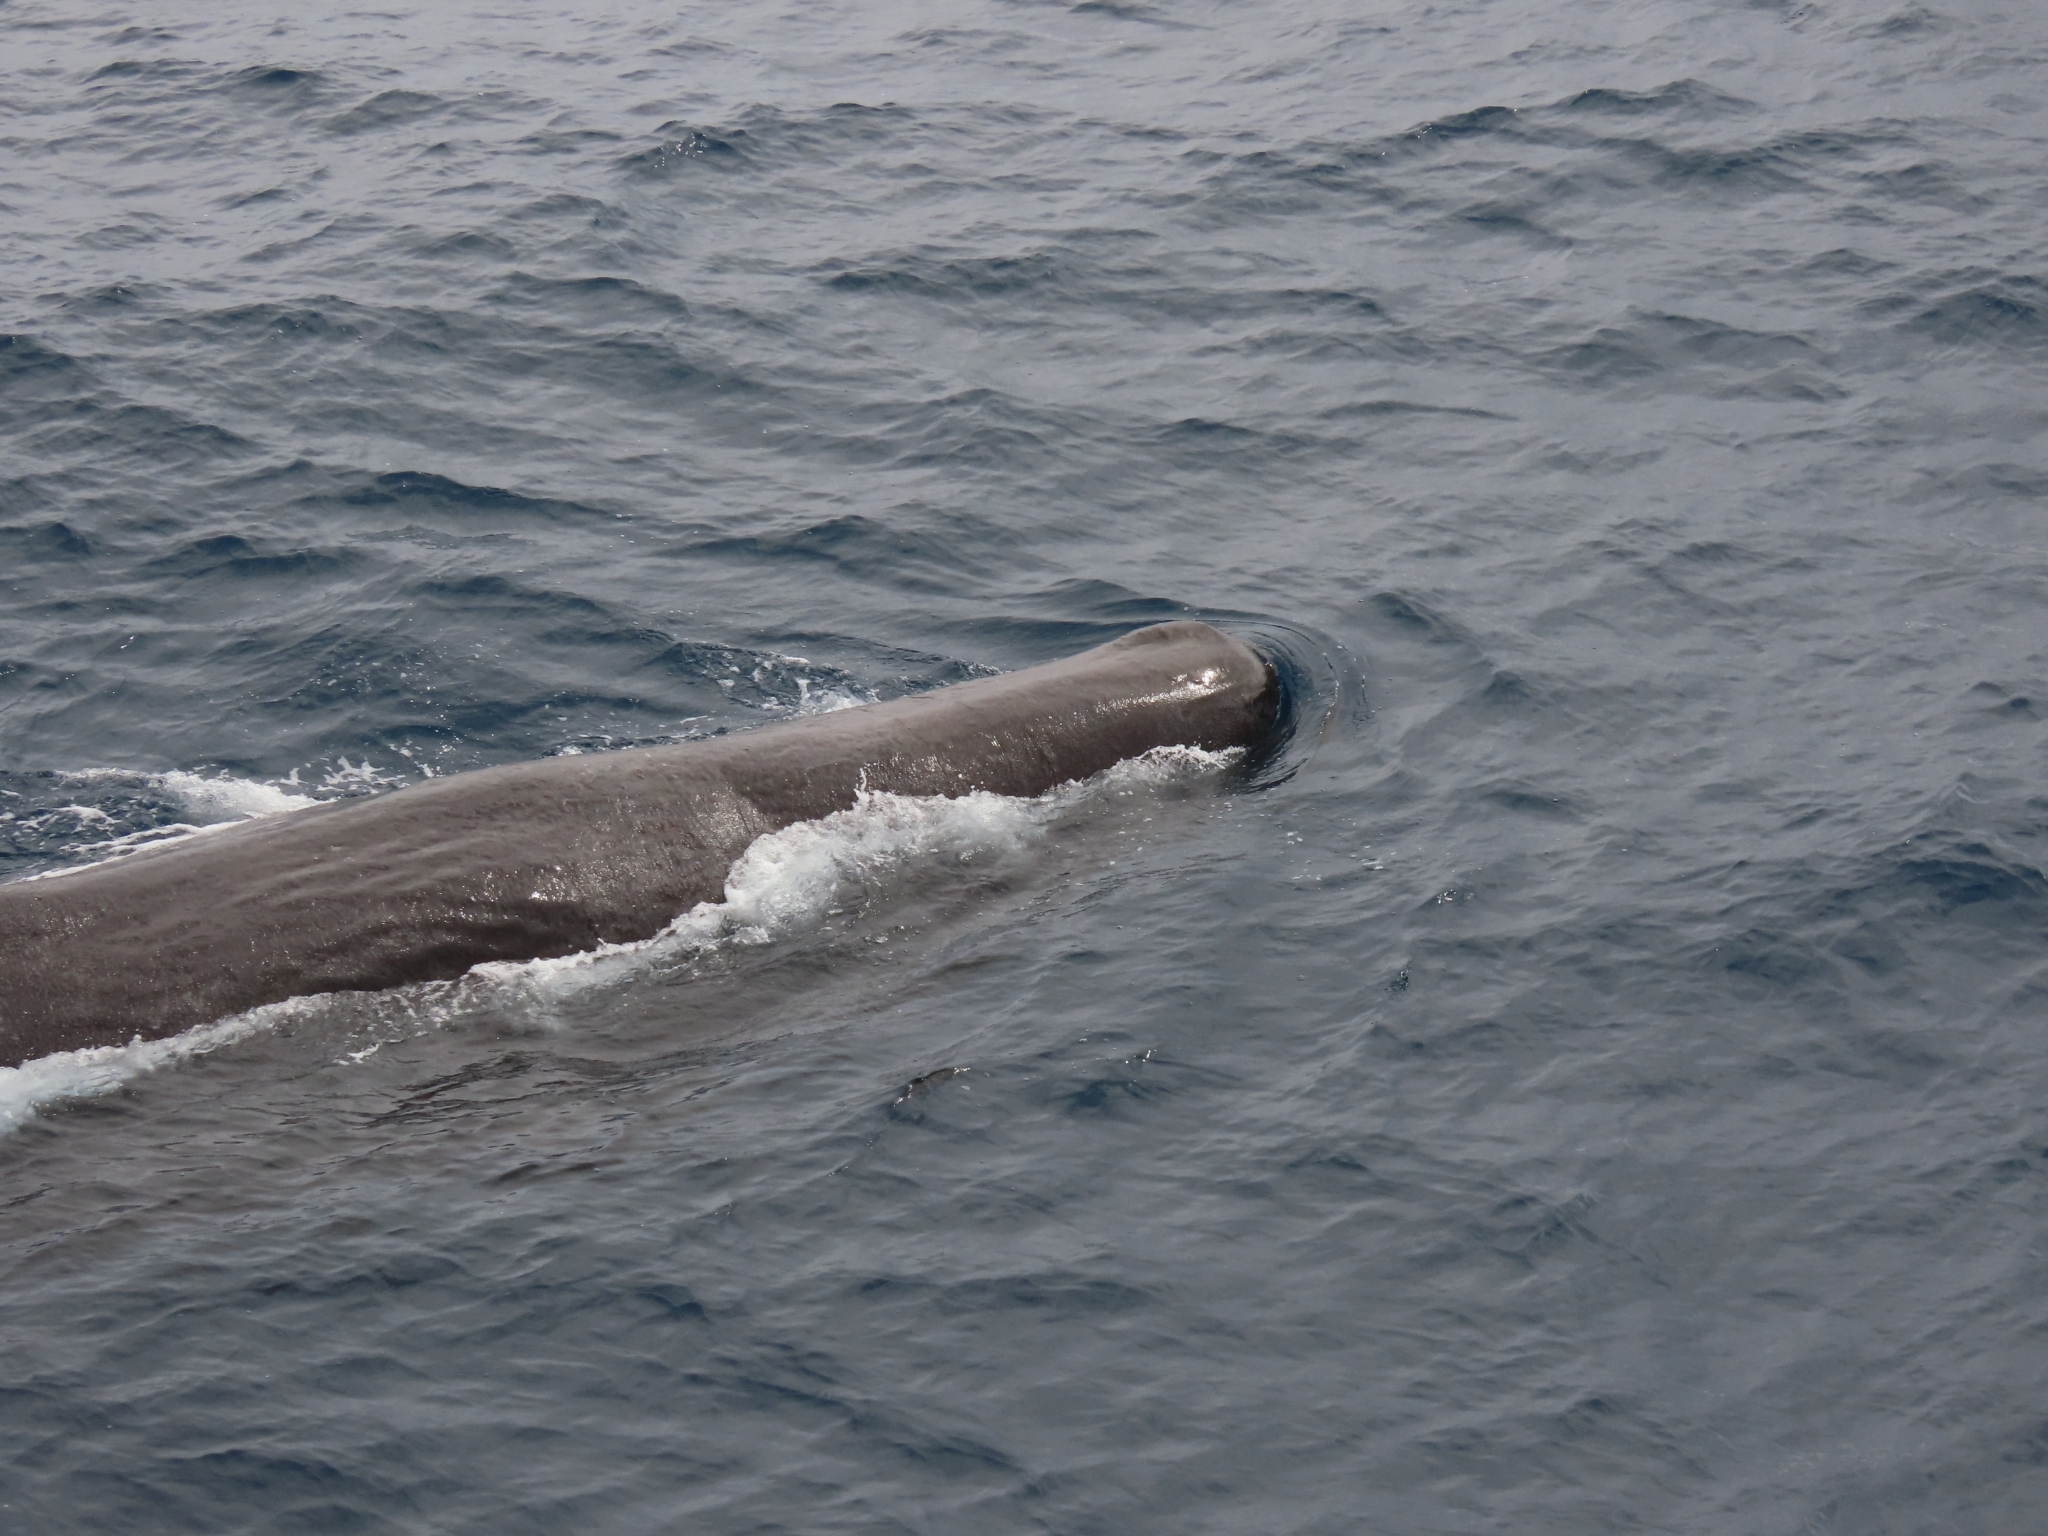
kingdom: Animalia
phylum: Chordata
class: Mammalia
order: Cetacea
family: Physeteridae
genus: Physeter
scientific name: Physeter macrocephalus
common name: Sperm whale
